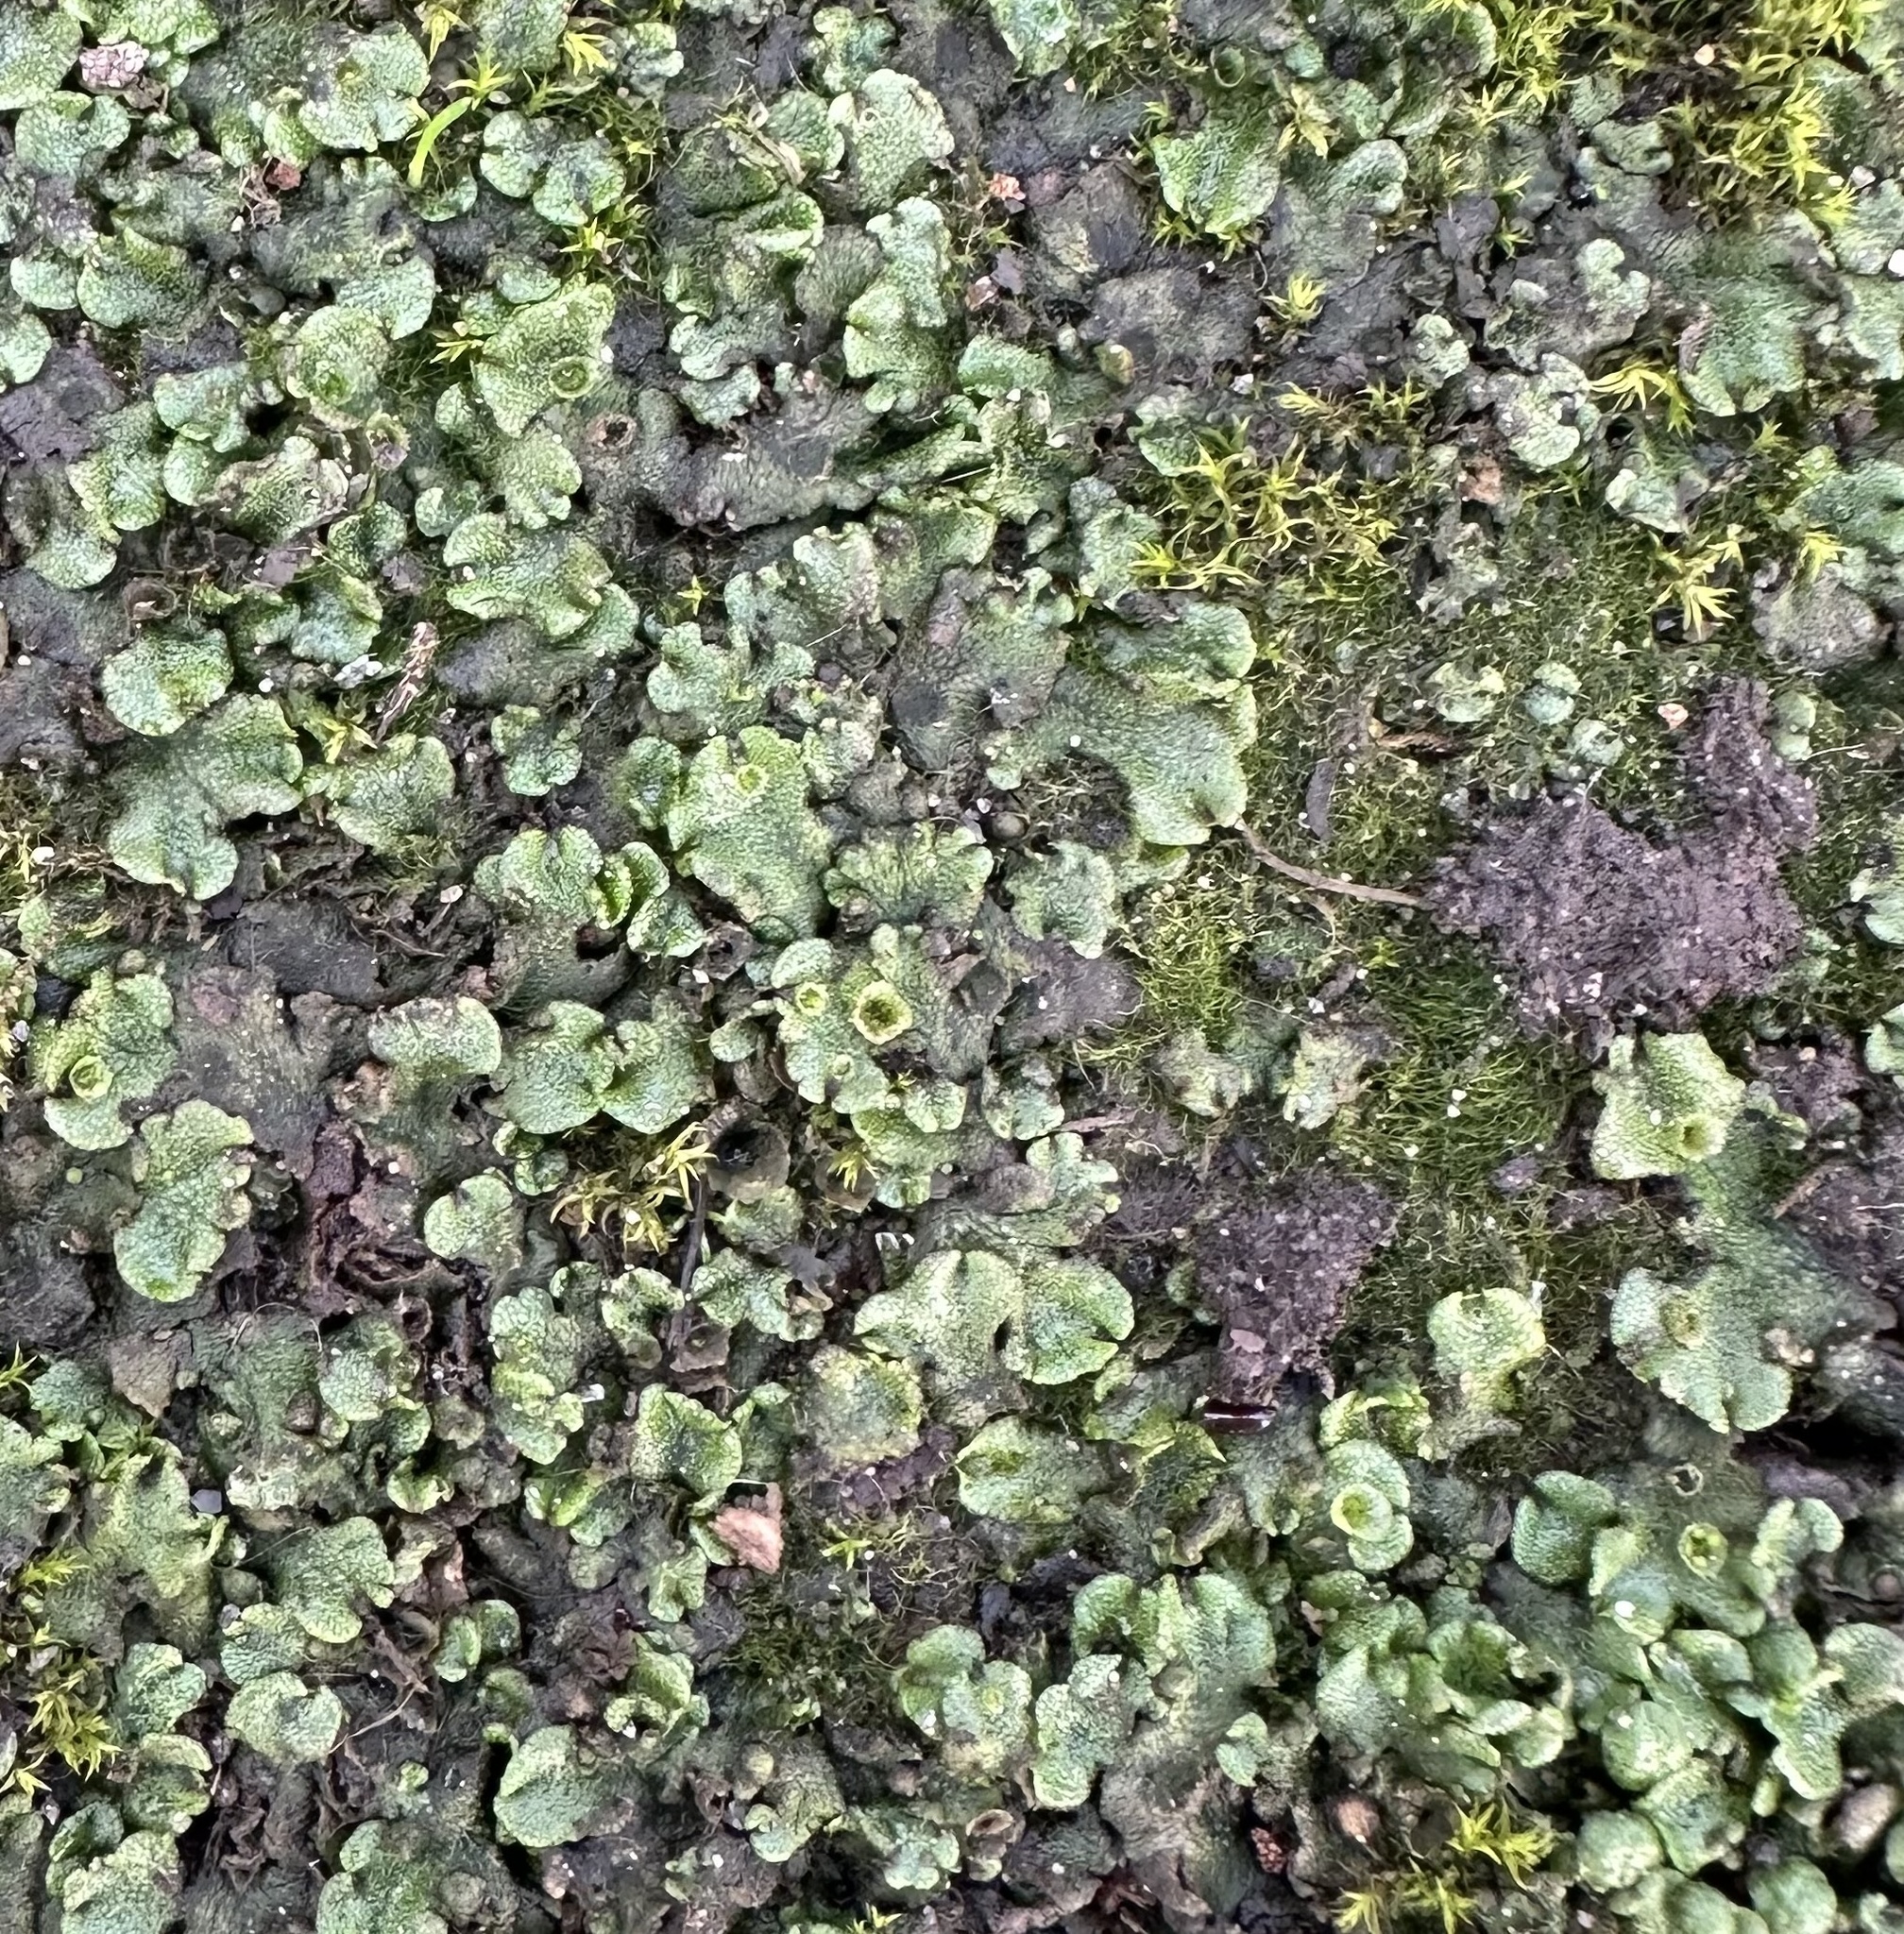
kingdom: Plantae
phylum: Marchantiophyta
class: Marchantiopsida
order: Marchantiales
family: Marchantiaceae
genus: Marchantia
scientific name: Marchantia polymorpha
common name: Common liverwort
